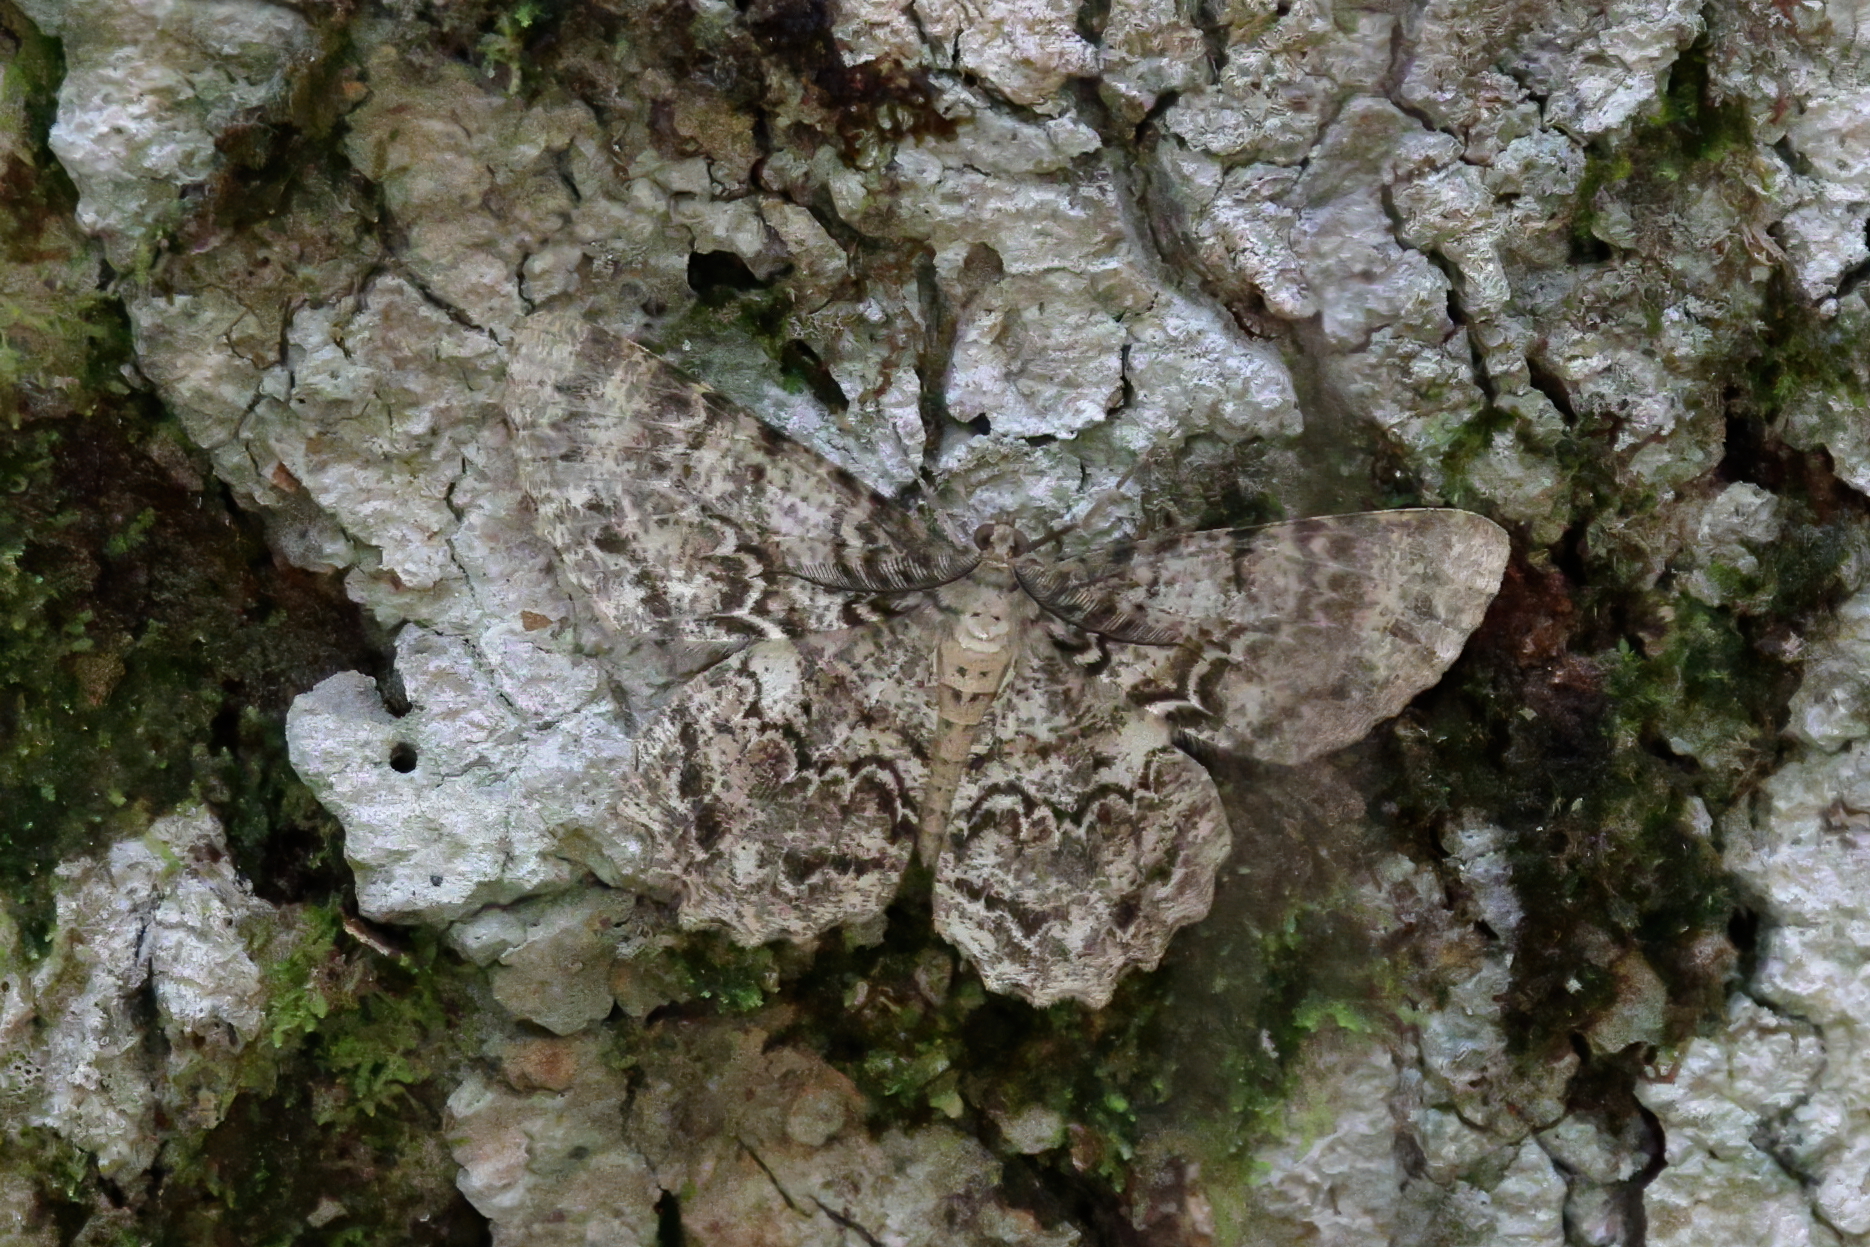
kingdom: Animalia
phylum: Arthropoda
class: Insecta
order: Lepidoptera
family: Geometridae
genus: Epimecis
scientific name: Epimecis hortaria
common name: Tulip-tree beauty
